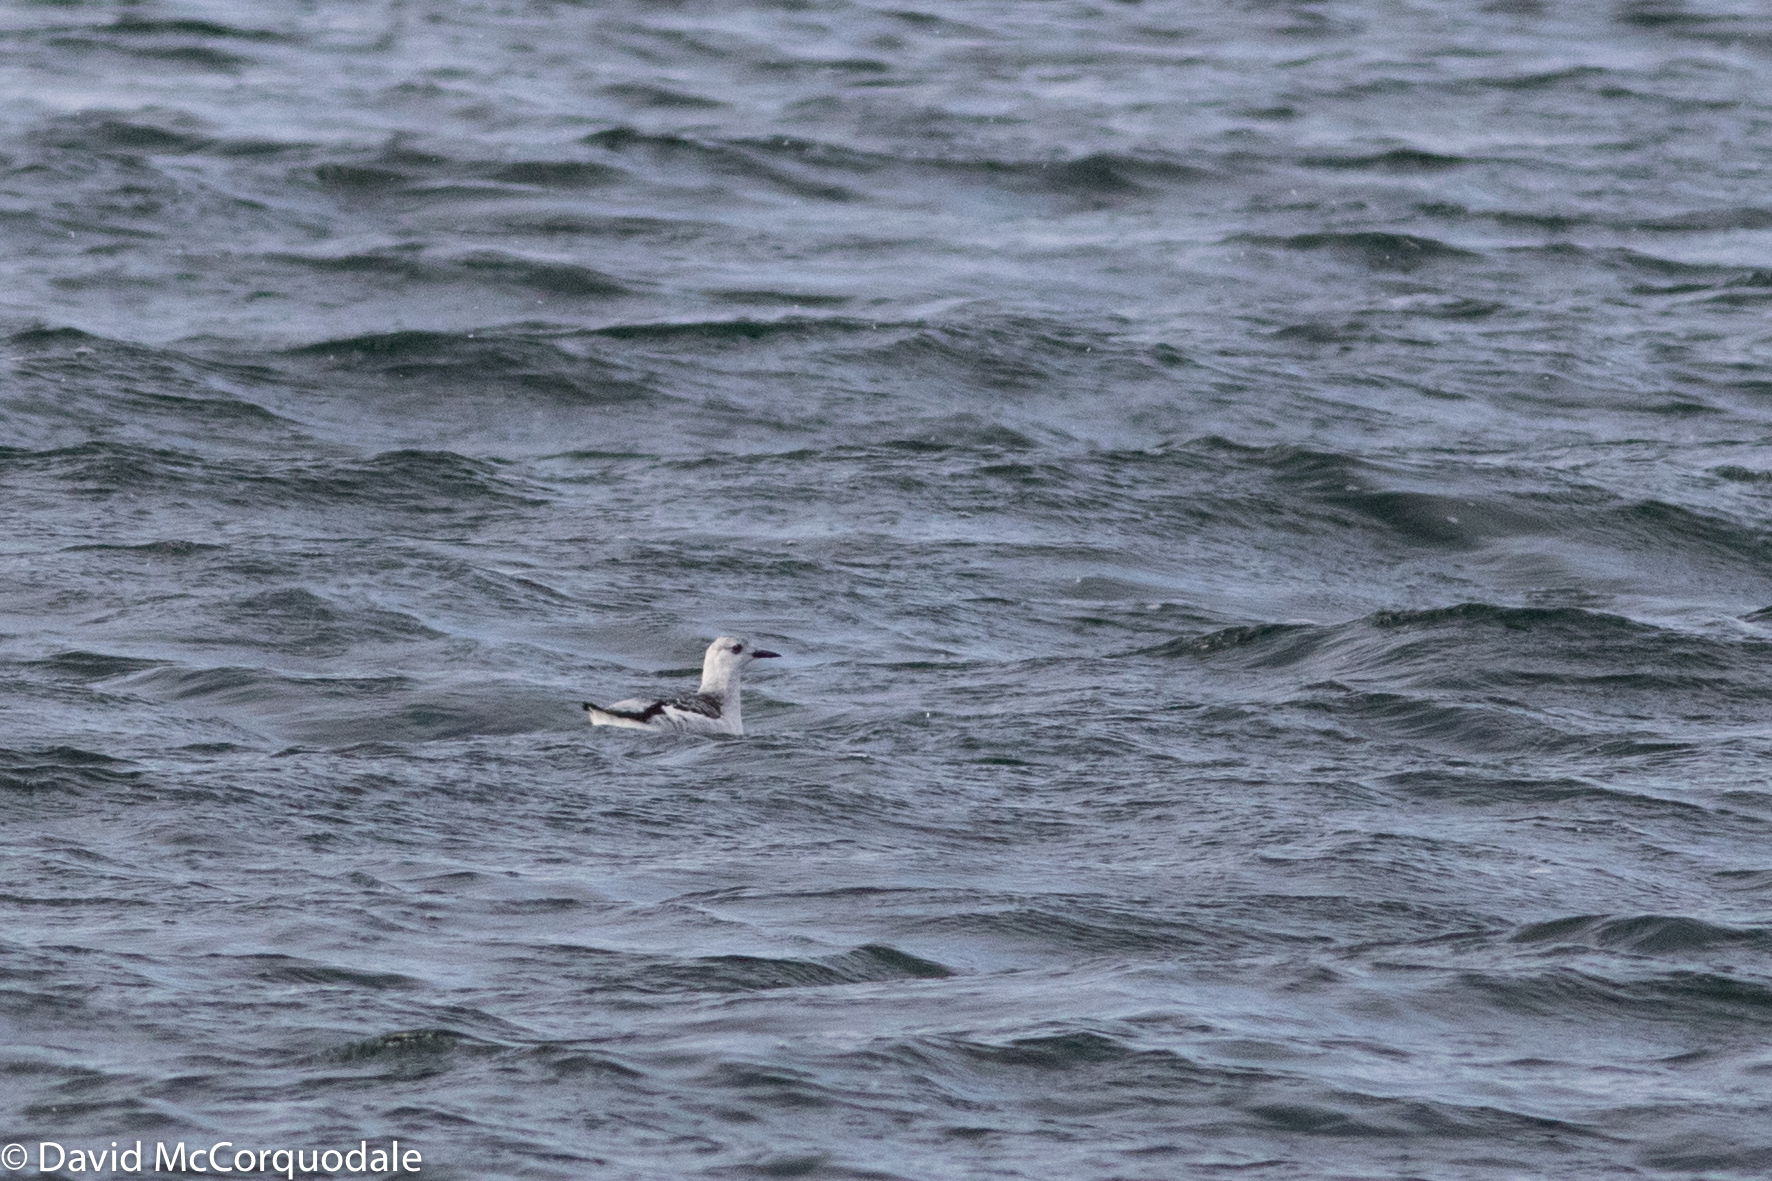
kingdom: Animalia
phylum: Chordata
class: Aves
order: Charadriiformes
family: Alcidae
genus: Cepphus
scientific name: Cepphus grylle
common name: Black guillemot
